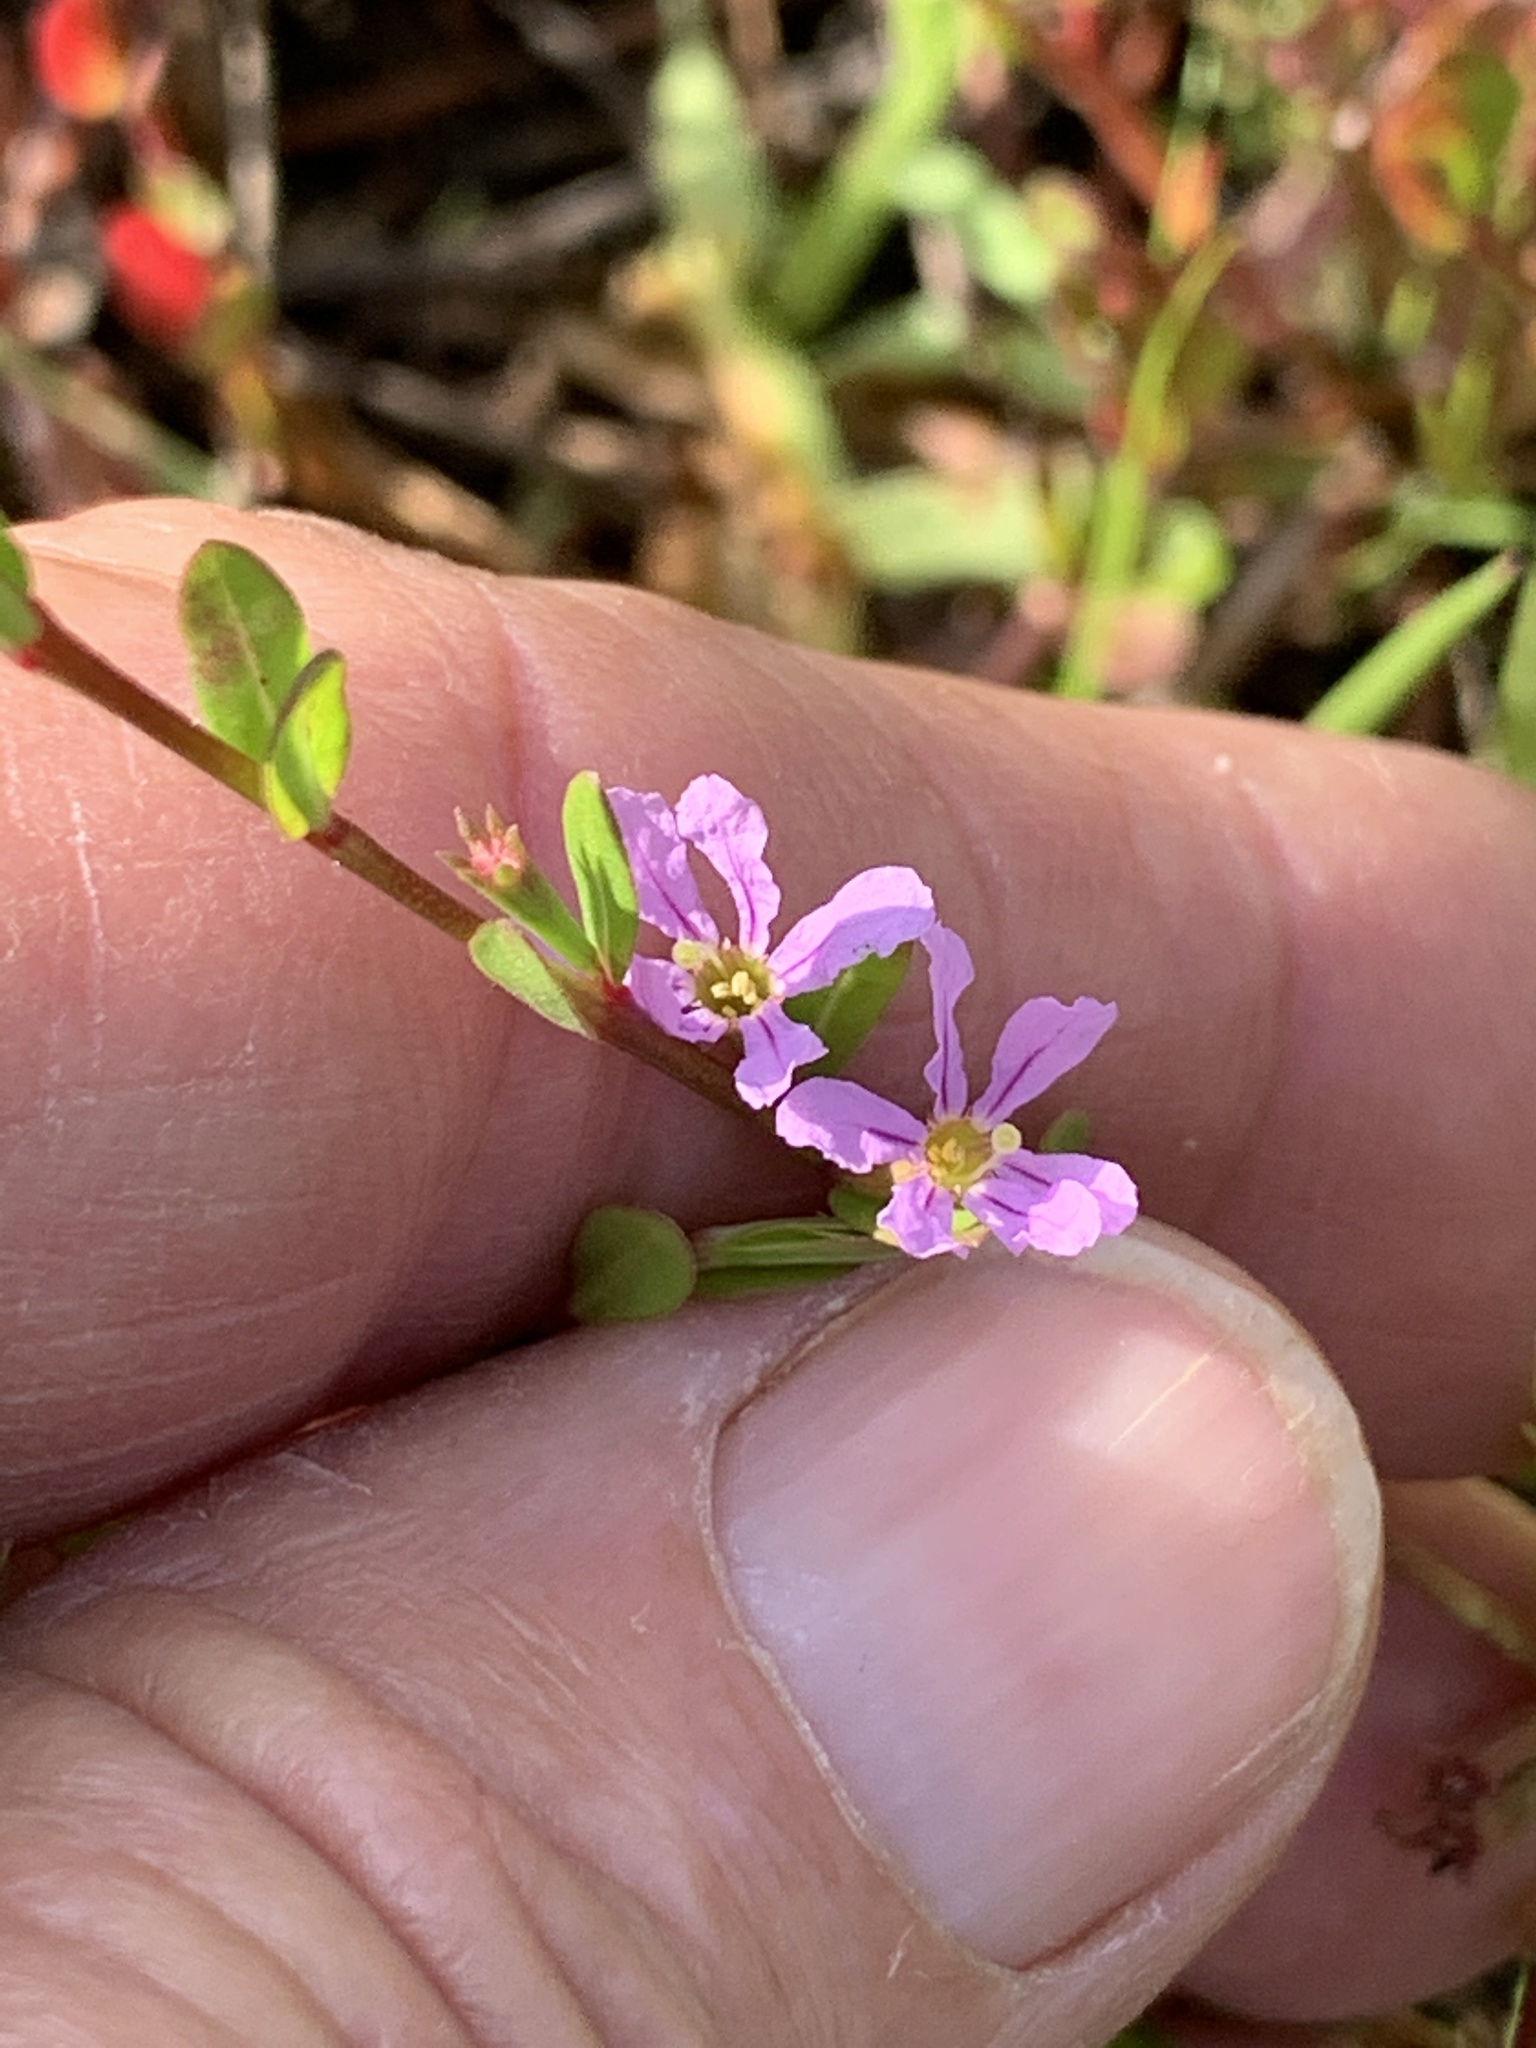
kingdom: Plantae
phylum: Tracheophyta
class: Magnoliopsida
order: Myrtales
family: Lythraceae
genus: Lythrum
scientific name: Lythrum flagellare
